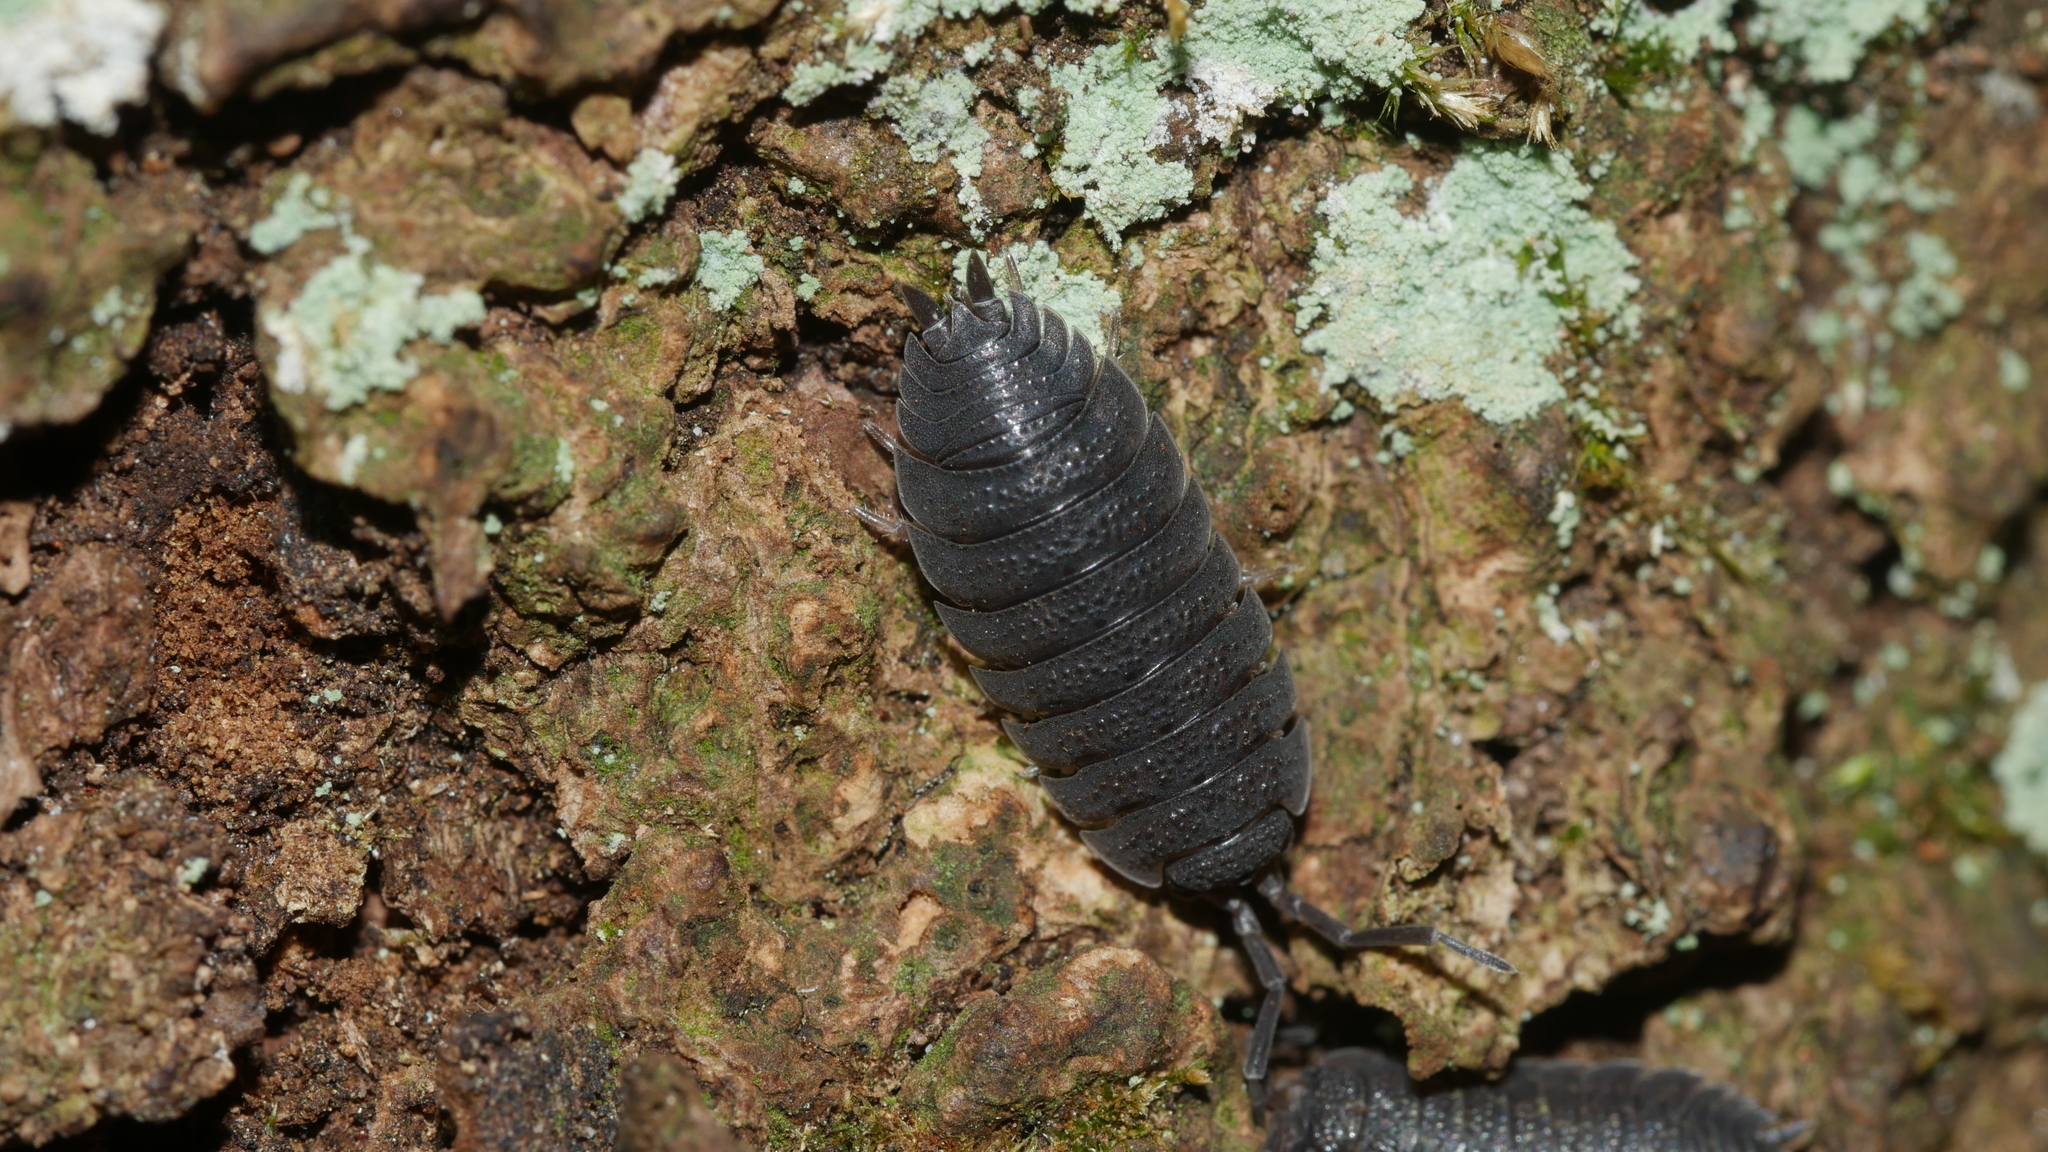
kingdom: Animalia
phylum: Arthropoda
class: Malacostraca
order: Isopoda
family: Porcellionidae
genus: Porcellio
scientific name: Porcellio scaber
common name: Common rough woodlouse
